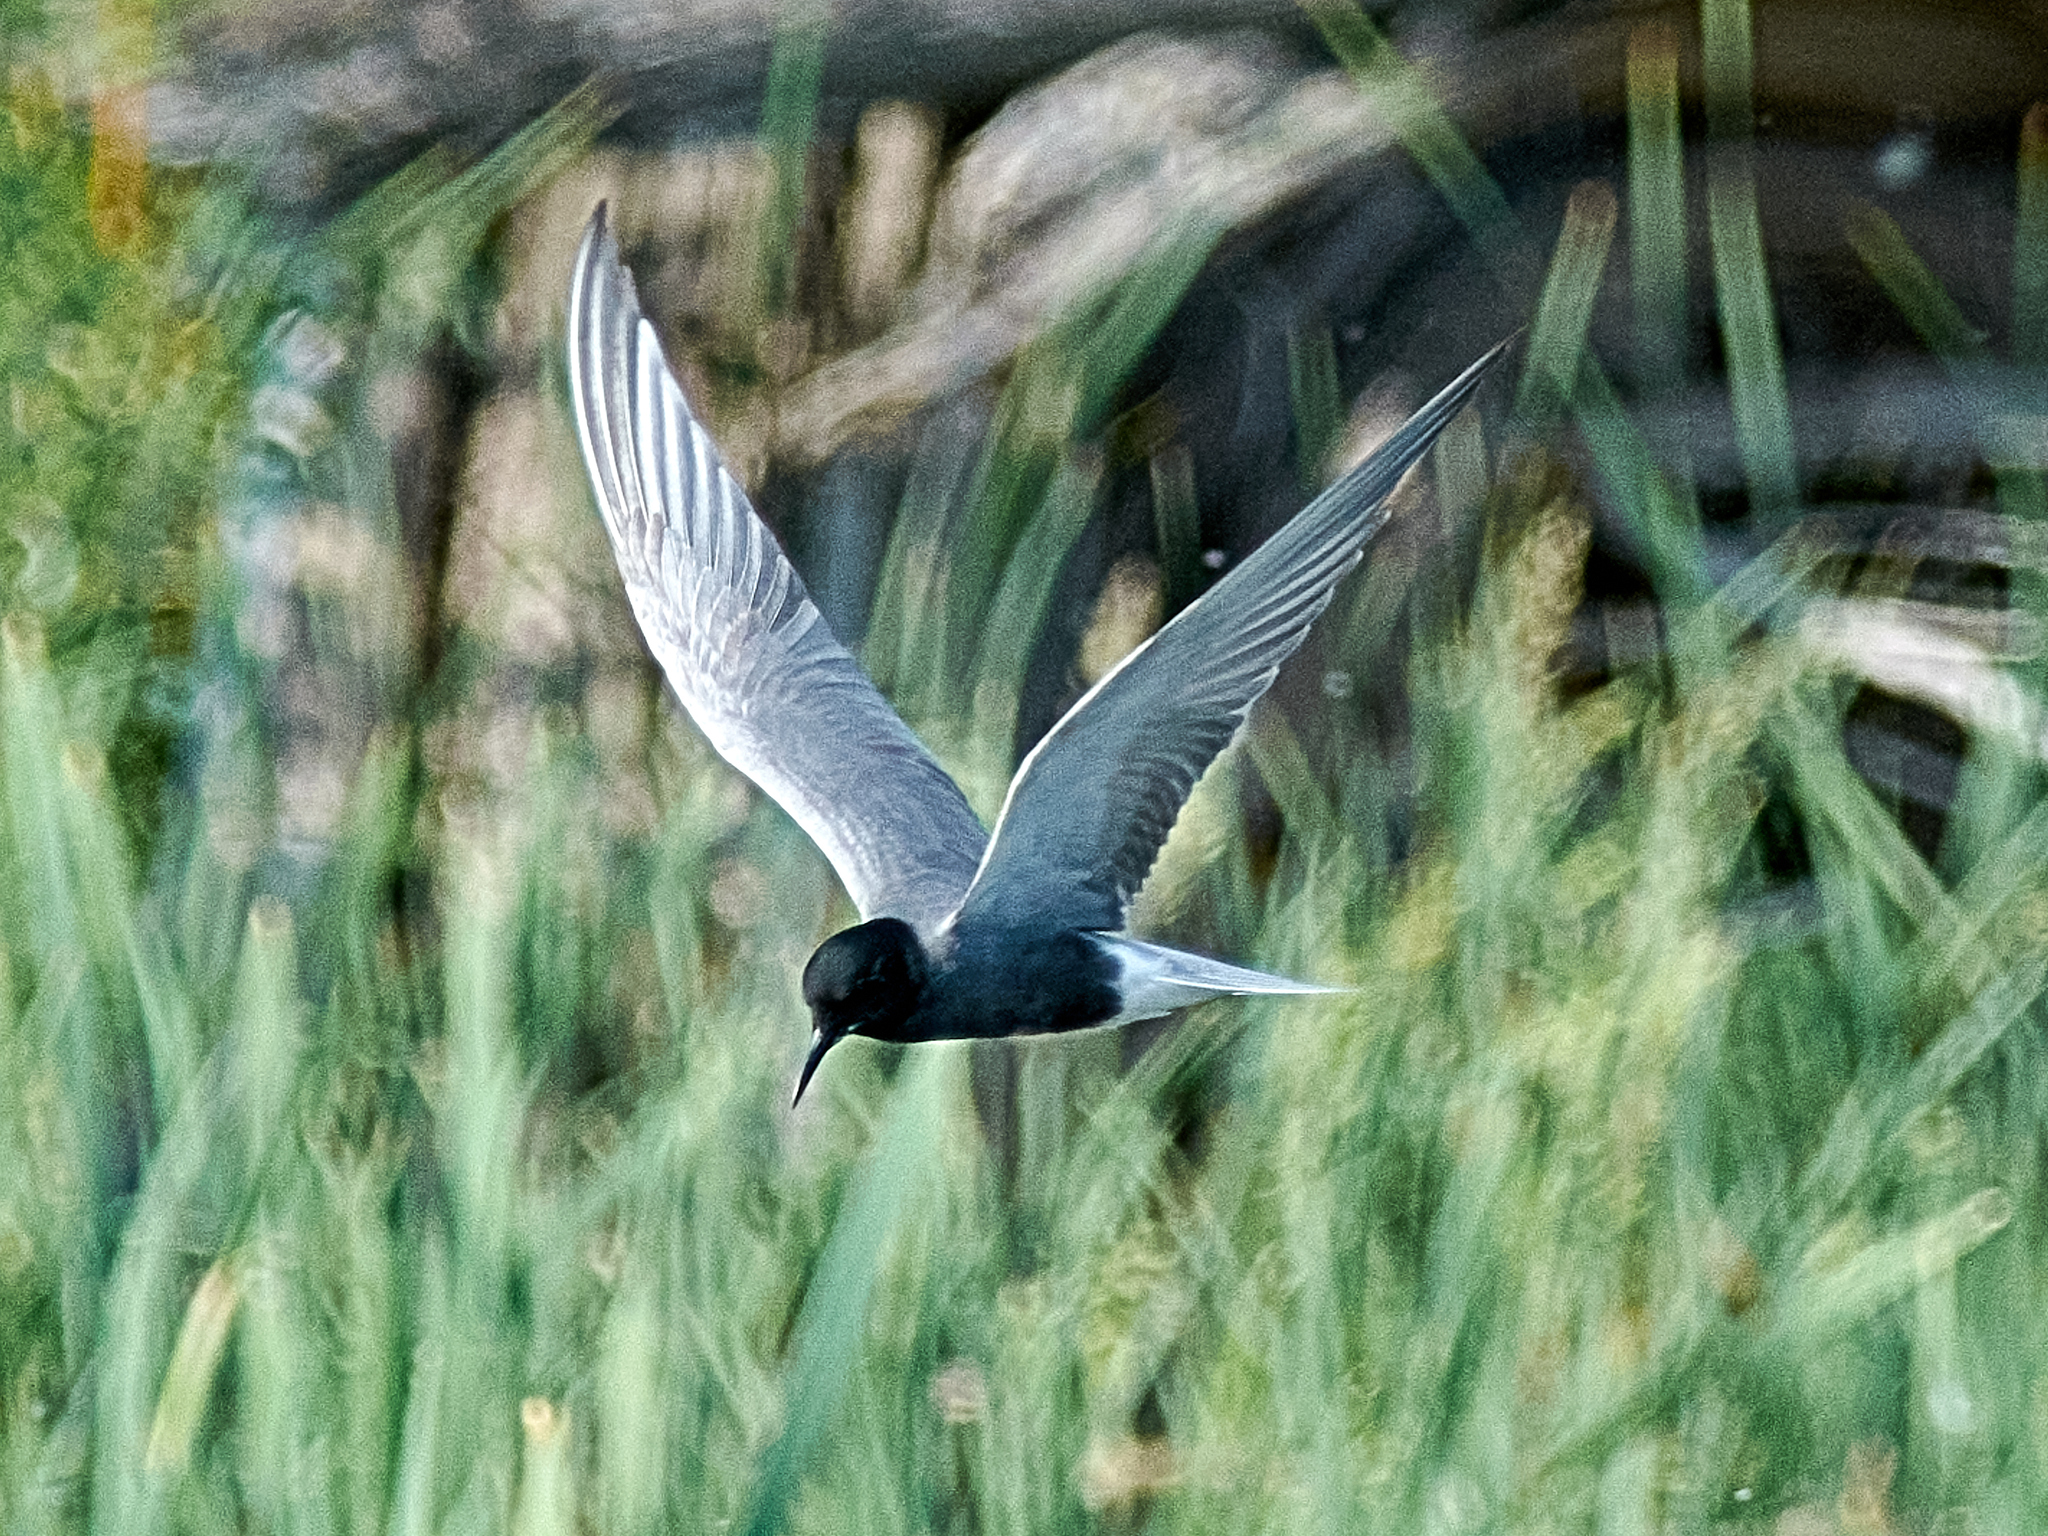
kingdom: Animalia
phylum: Chordata
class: Aves
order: Charadriiformes
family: Laridae
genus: Chlidonias
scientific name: Chlidonias niger
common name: Black tern
